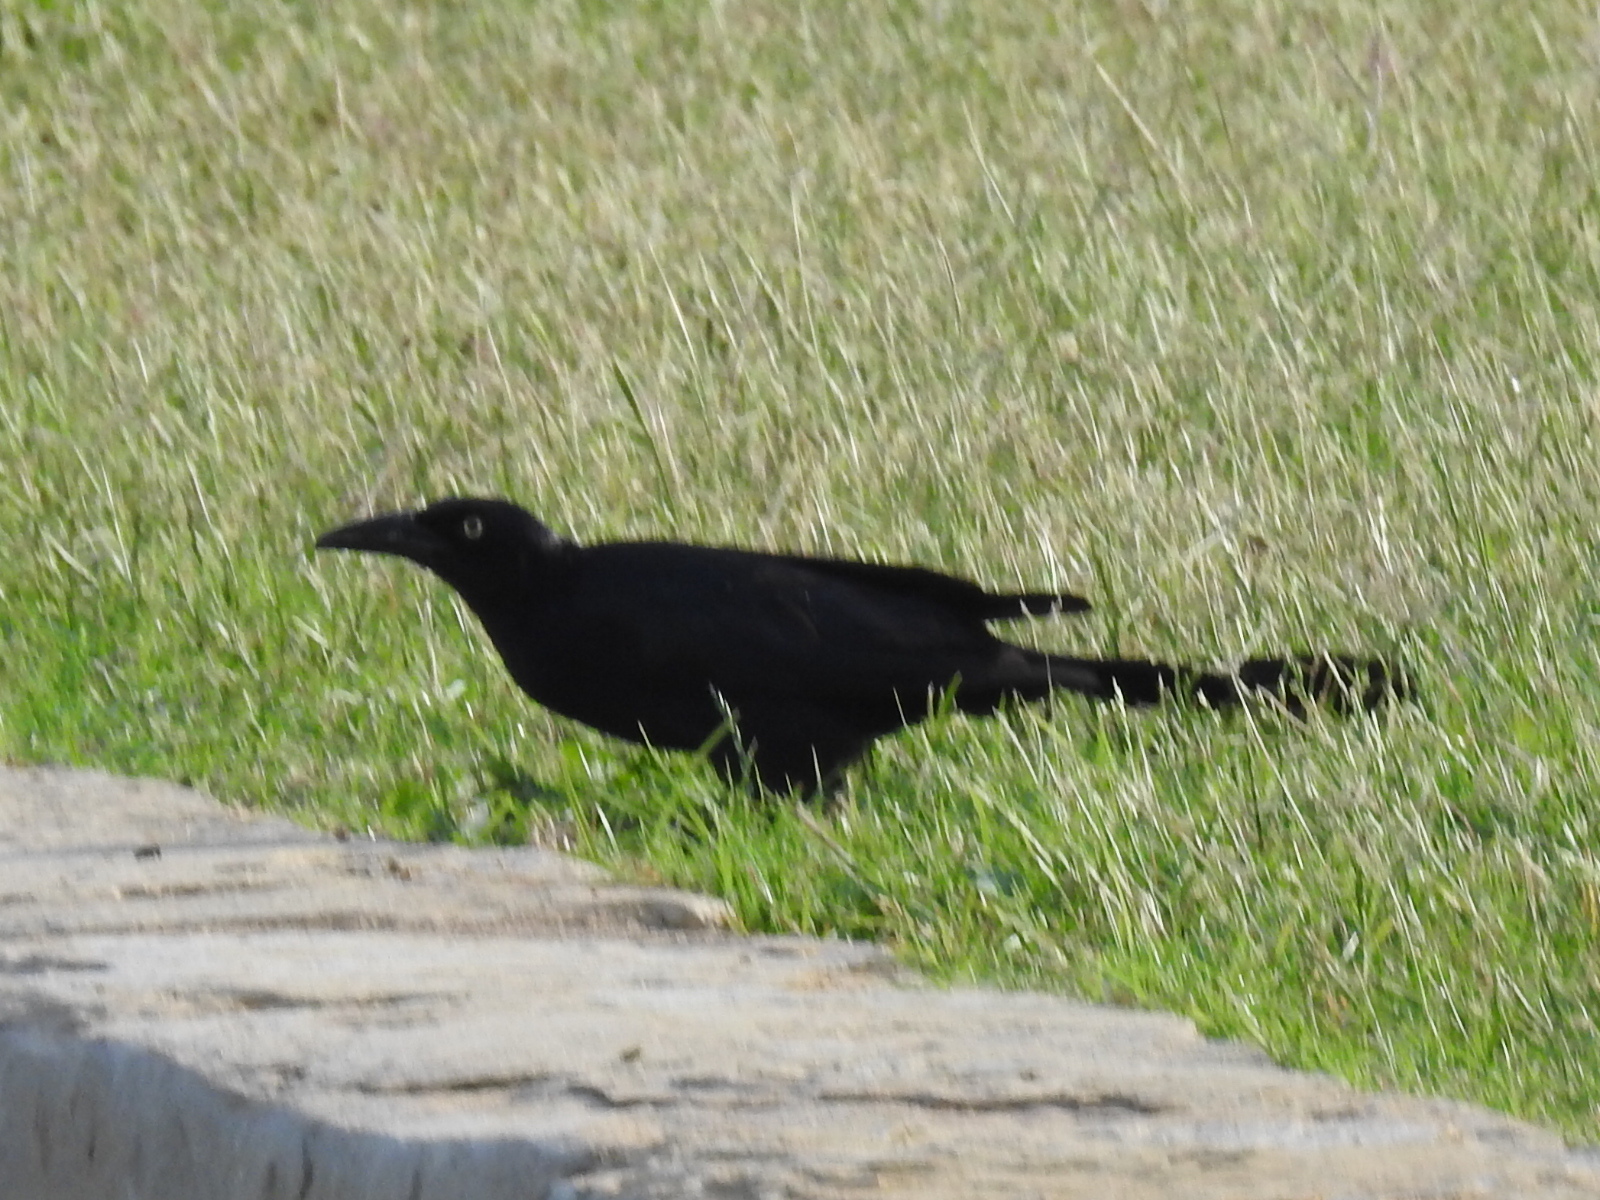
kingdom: Animalia
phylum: Chordata
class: Aves
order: Passeriformes
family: Icteridae
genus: Quiscalus
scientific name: Quiscalus mexicanus
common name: Great-tailed grackle
